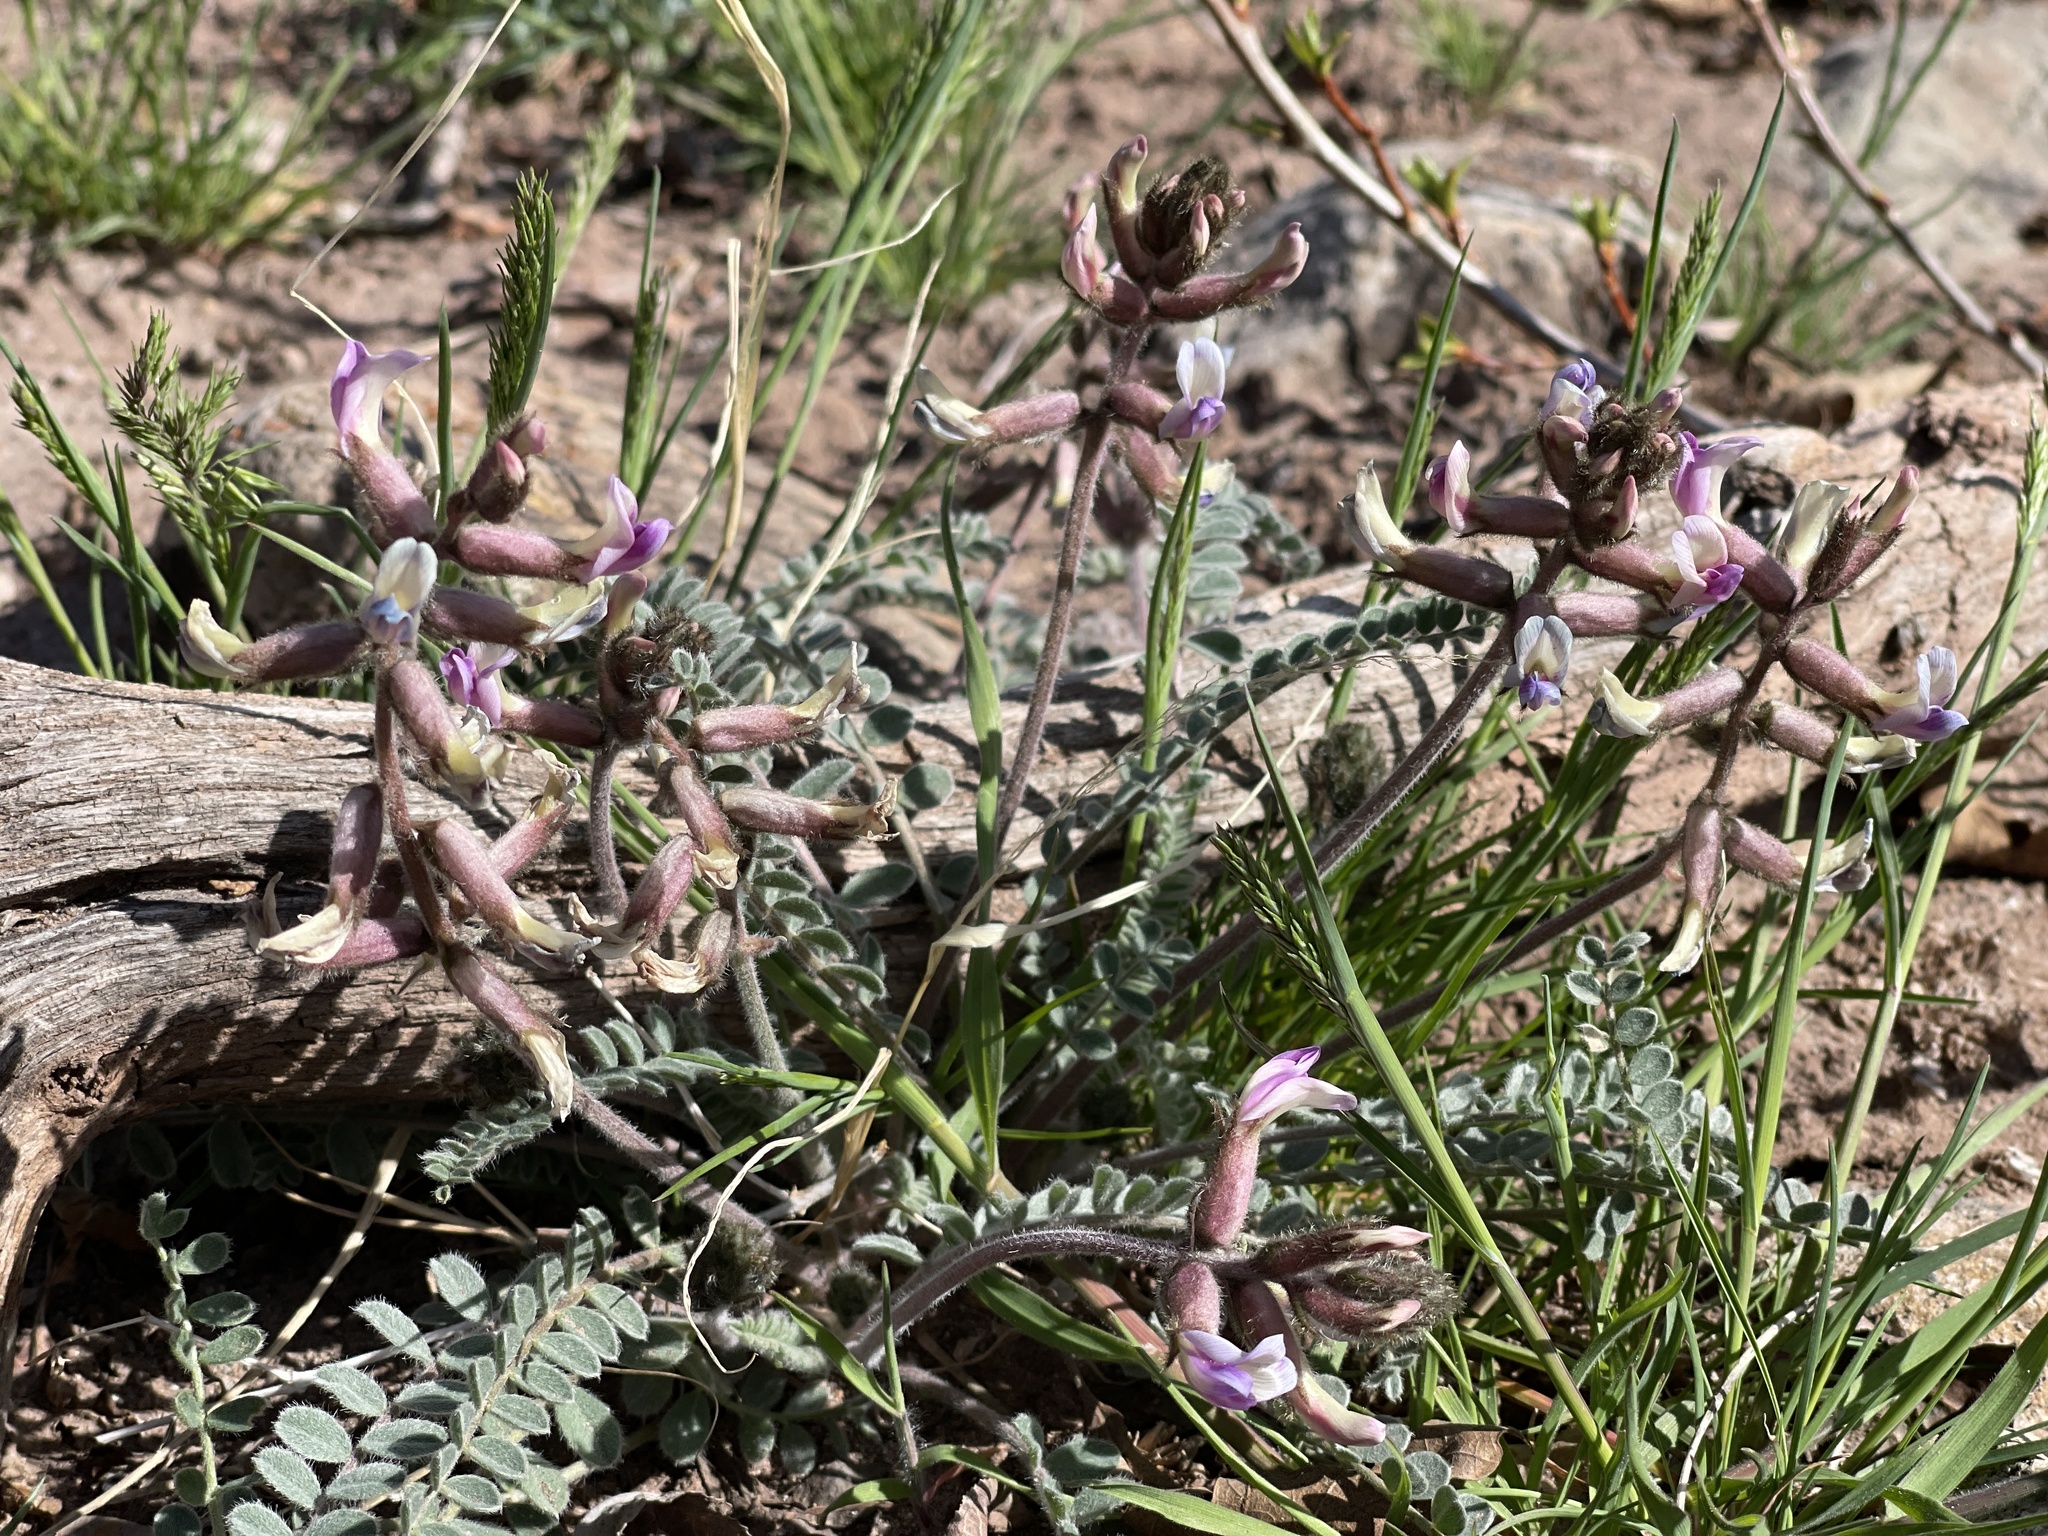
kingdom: Plantae
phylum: Tracheophyta
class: Magnoliopsida
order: Fabales
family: Fabaceae
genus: Astragalus
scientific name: Astragalus mollissimus
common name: Woolly locoweed
